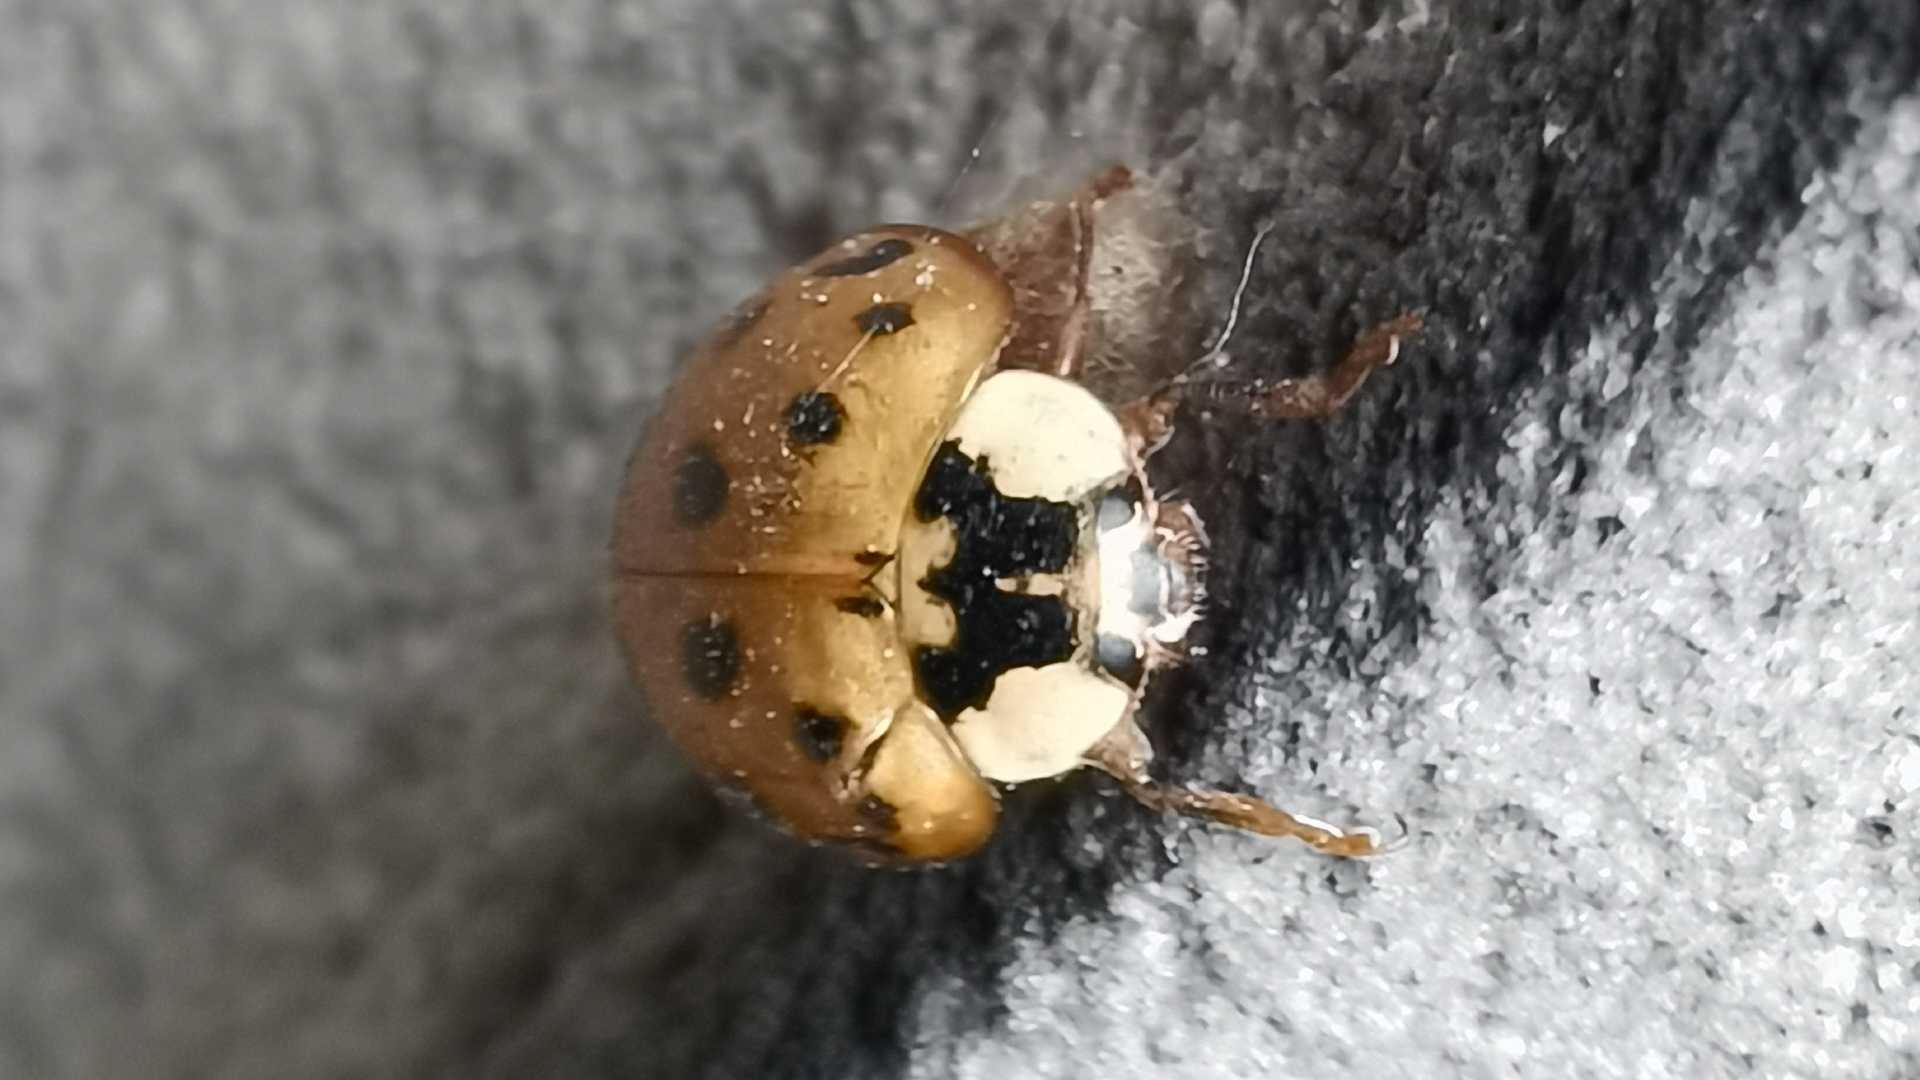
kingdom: Animalia
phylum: Arthropoda
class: Insecta
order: Coleoptera
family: Coccinellidae
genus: Harmonia
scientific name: Harmonia axyridis
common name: Harlequin ladybird
